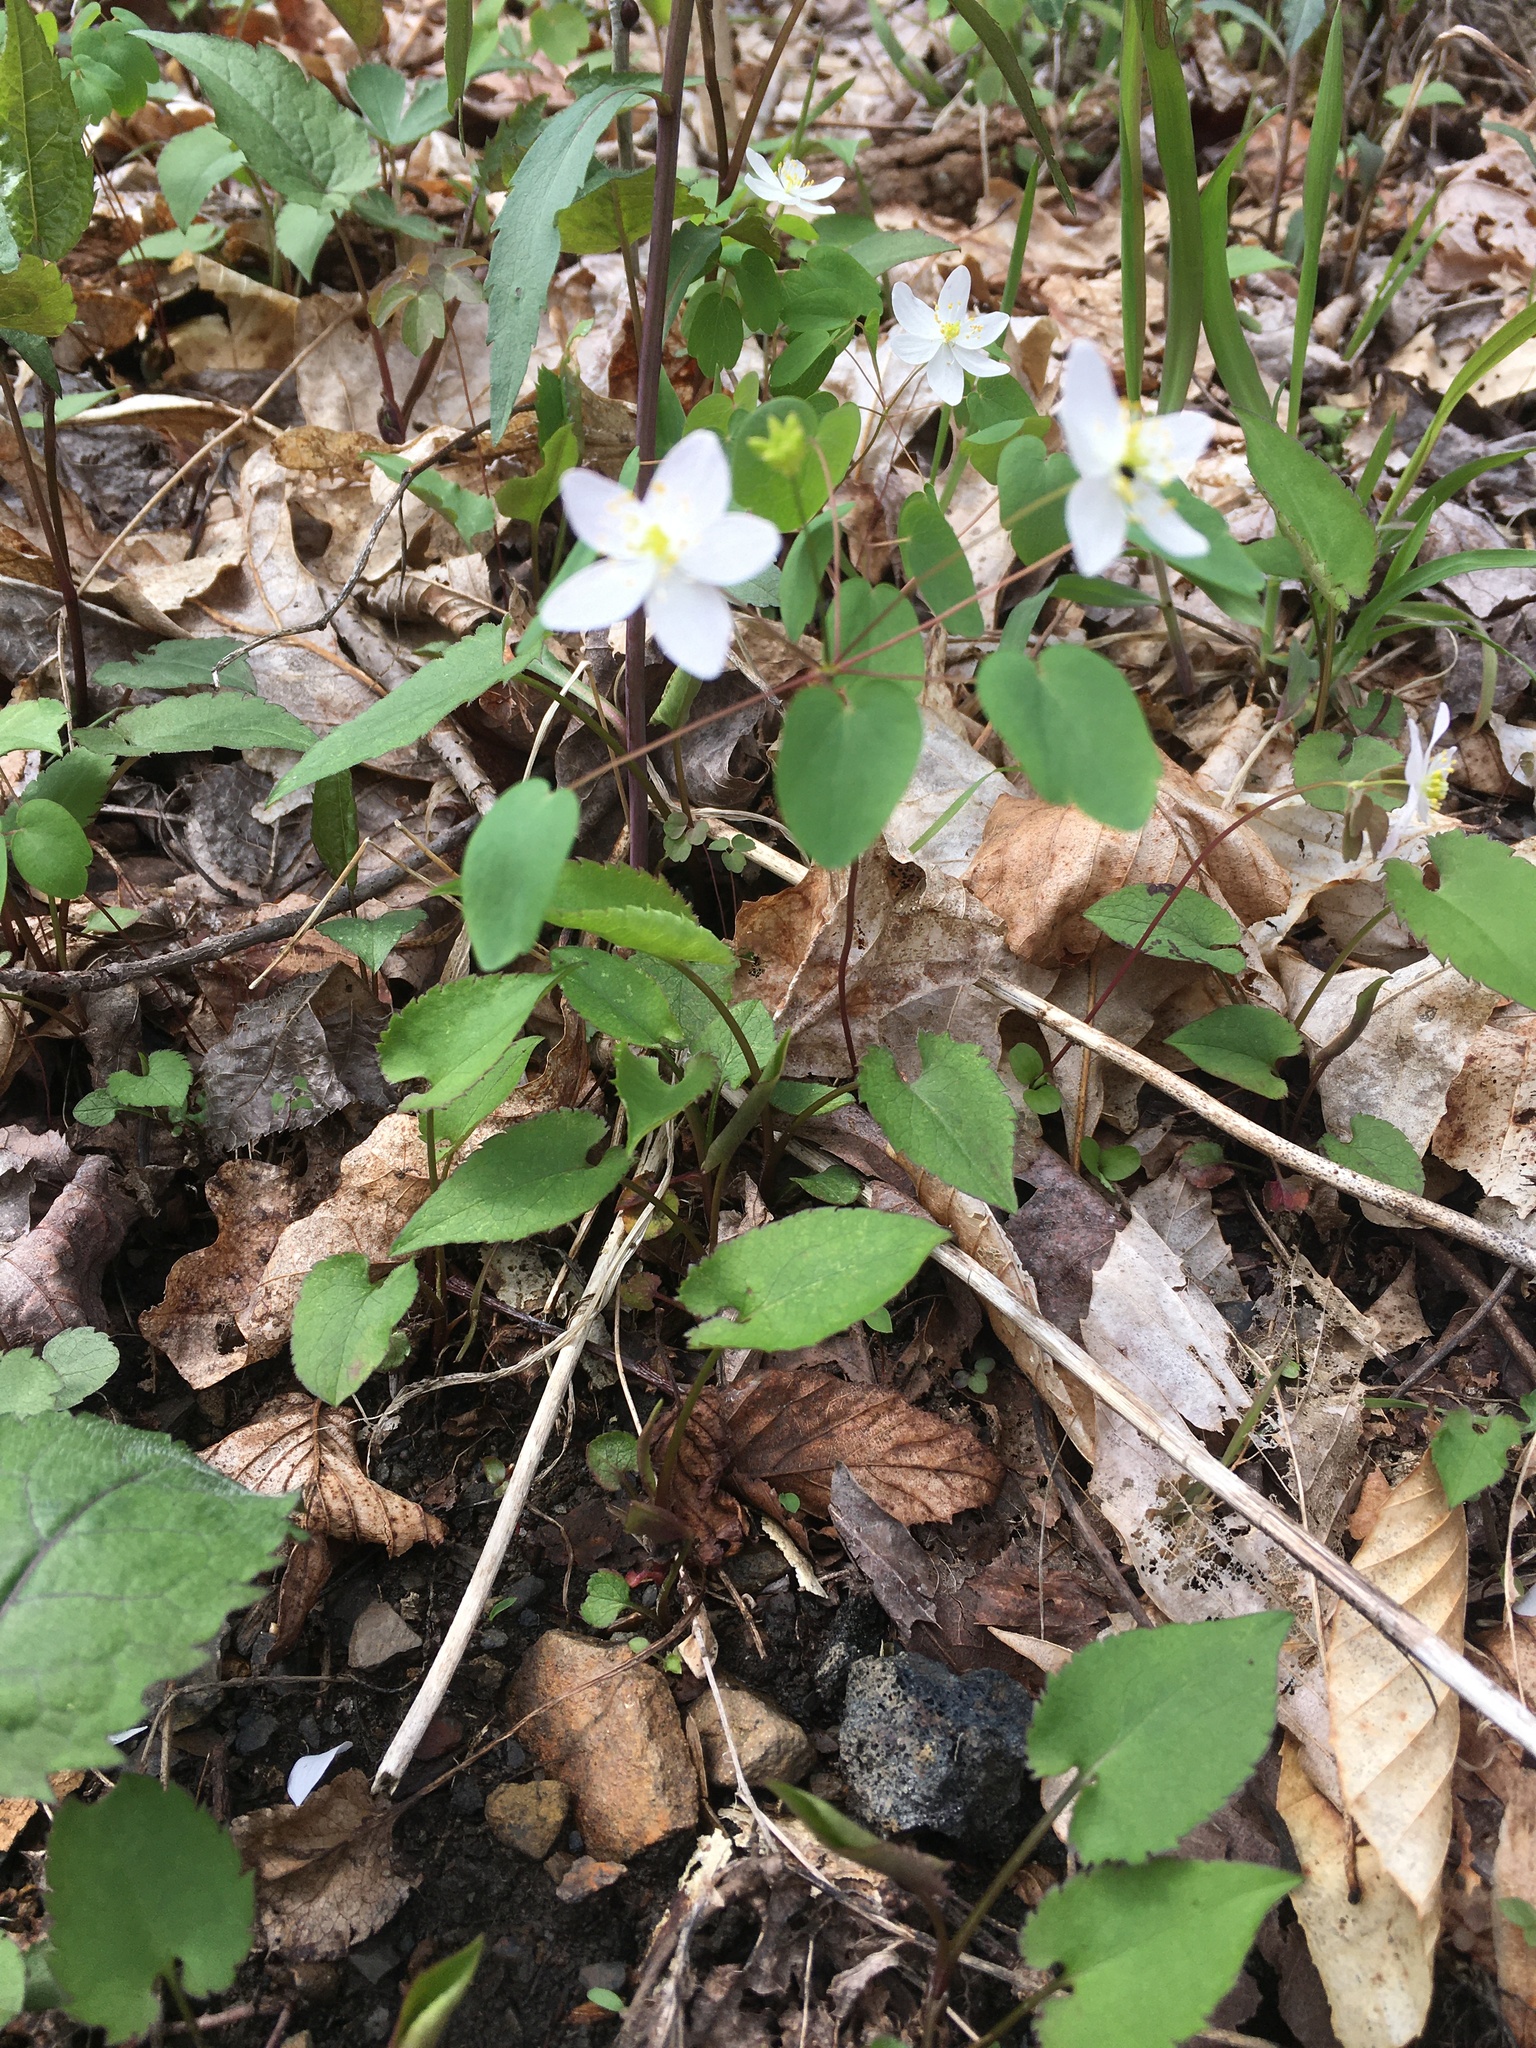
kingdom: Plantae
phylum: Tracheophyta
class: Magnoliopsida
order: Ranunculales
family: Ranunculaceae
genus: Thalictrum
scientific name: Thalictrum thalictroides
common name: Rue-anemone
